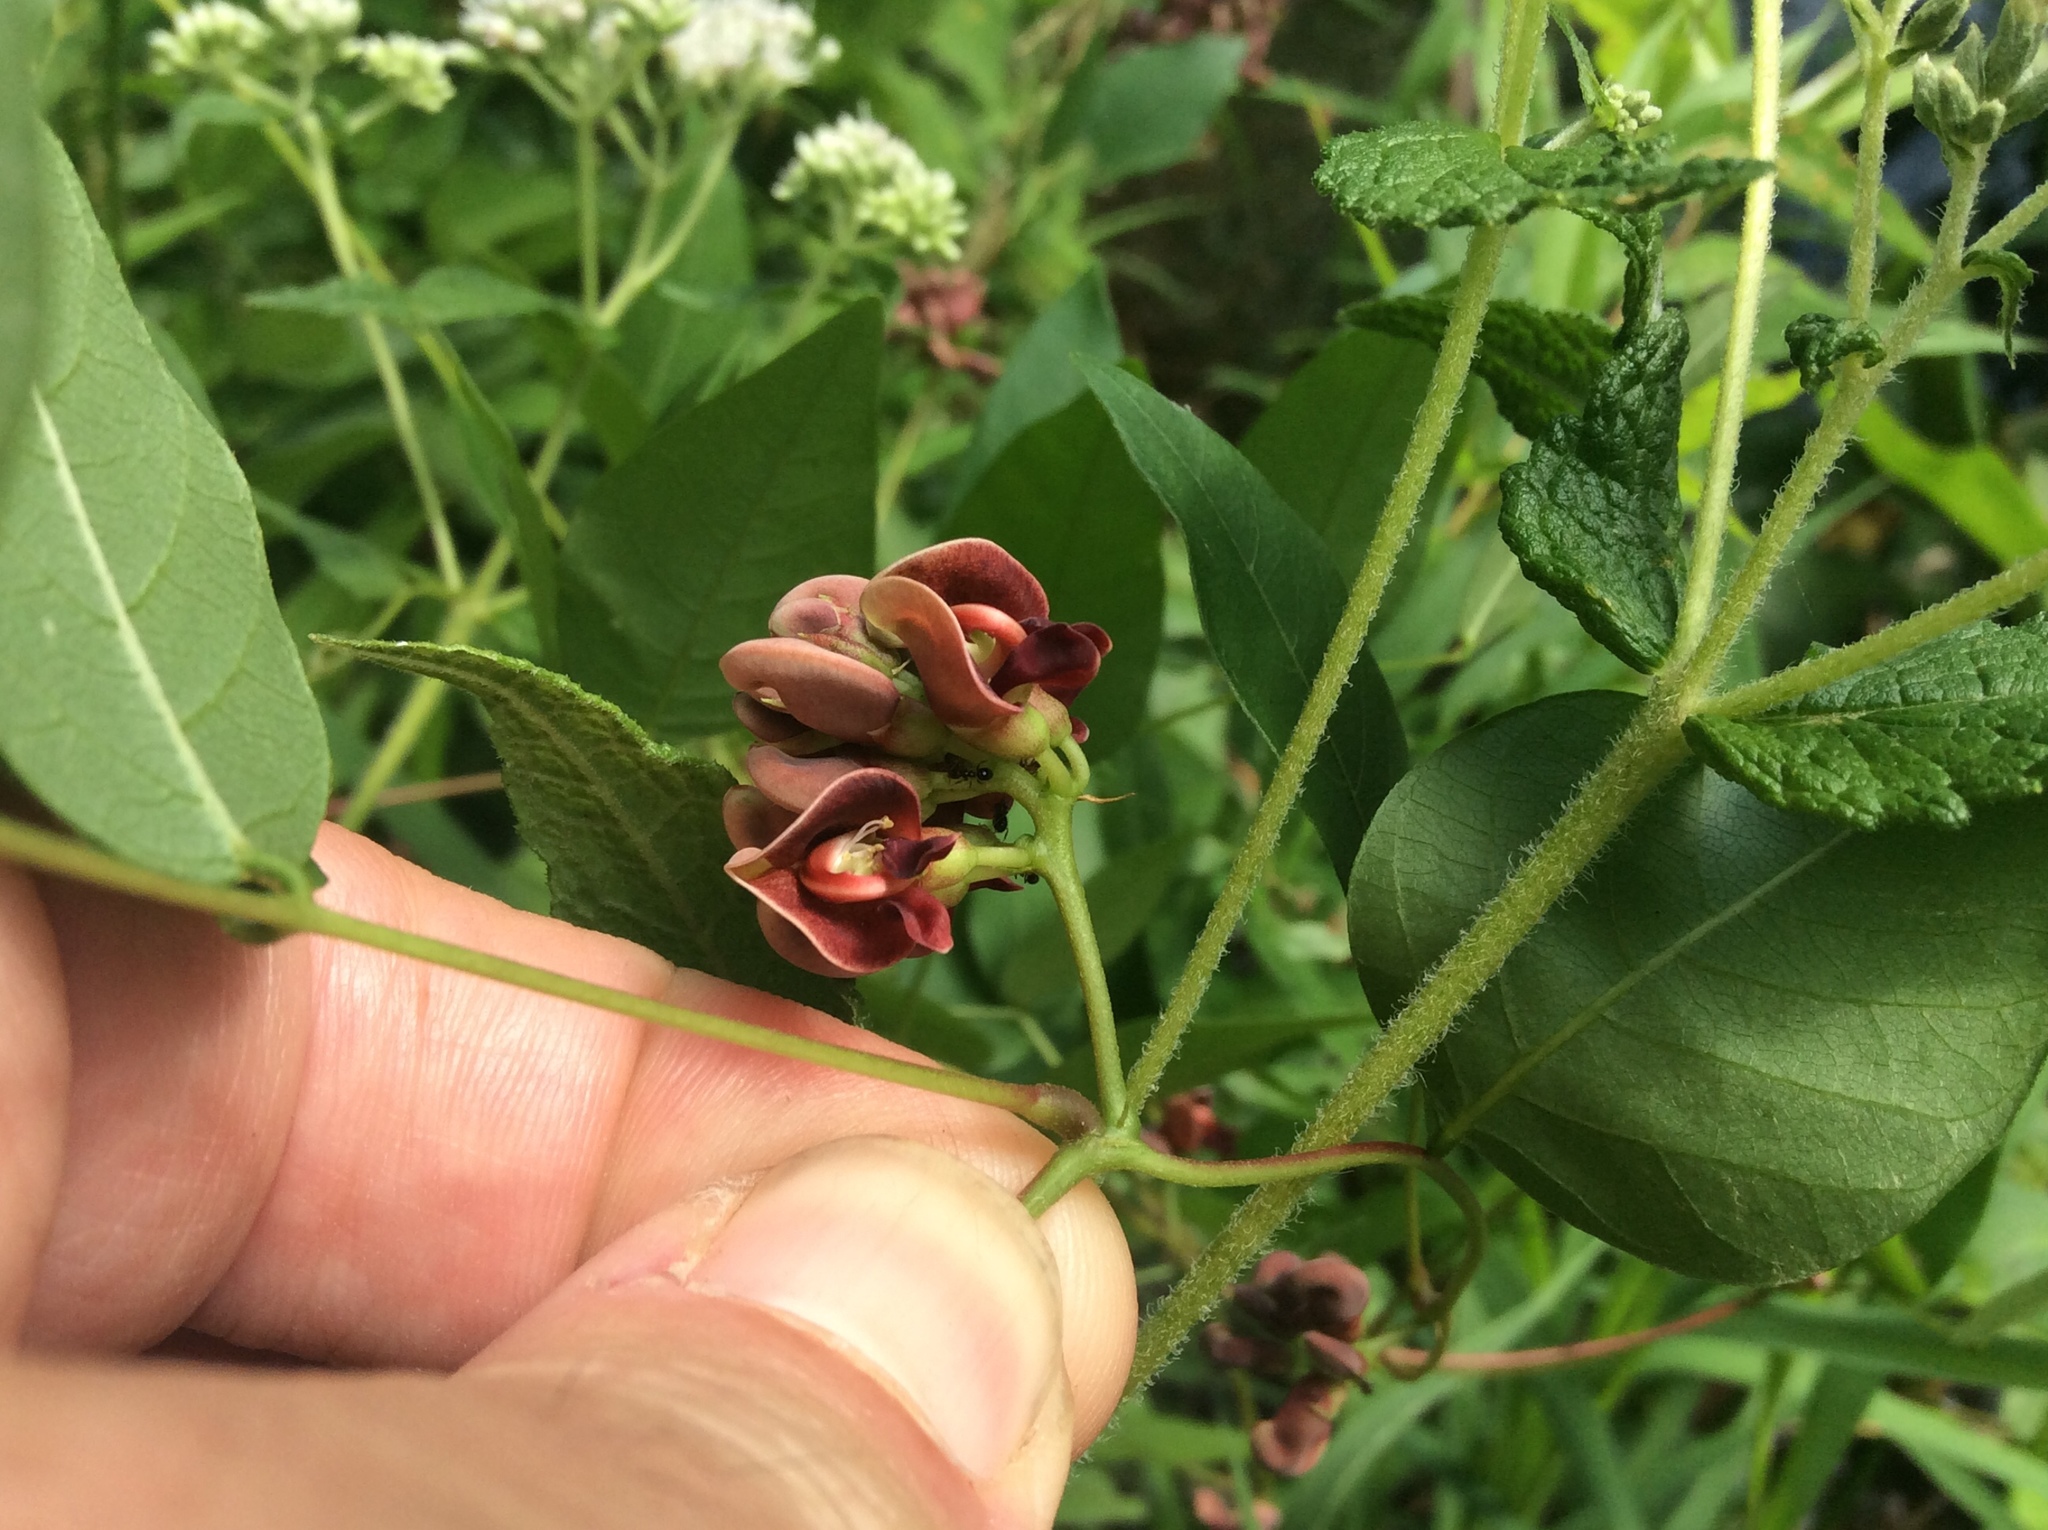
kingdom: Plantae
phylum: Tracheophyta
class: Magnoliopsida
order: Fabales
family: Fabaceae
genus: Apios
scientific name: Apios americana
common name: American potato-bean
